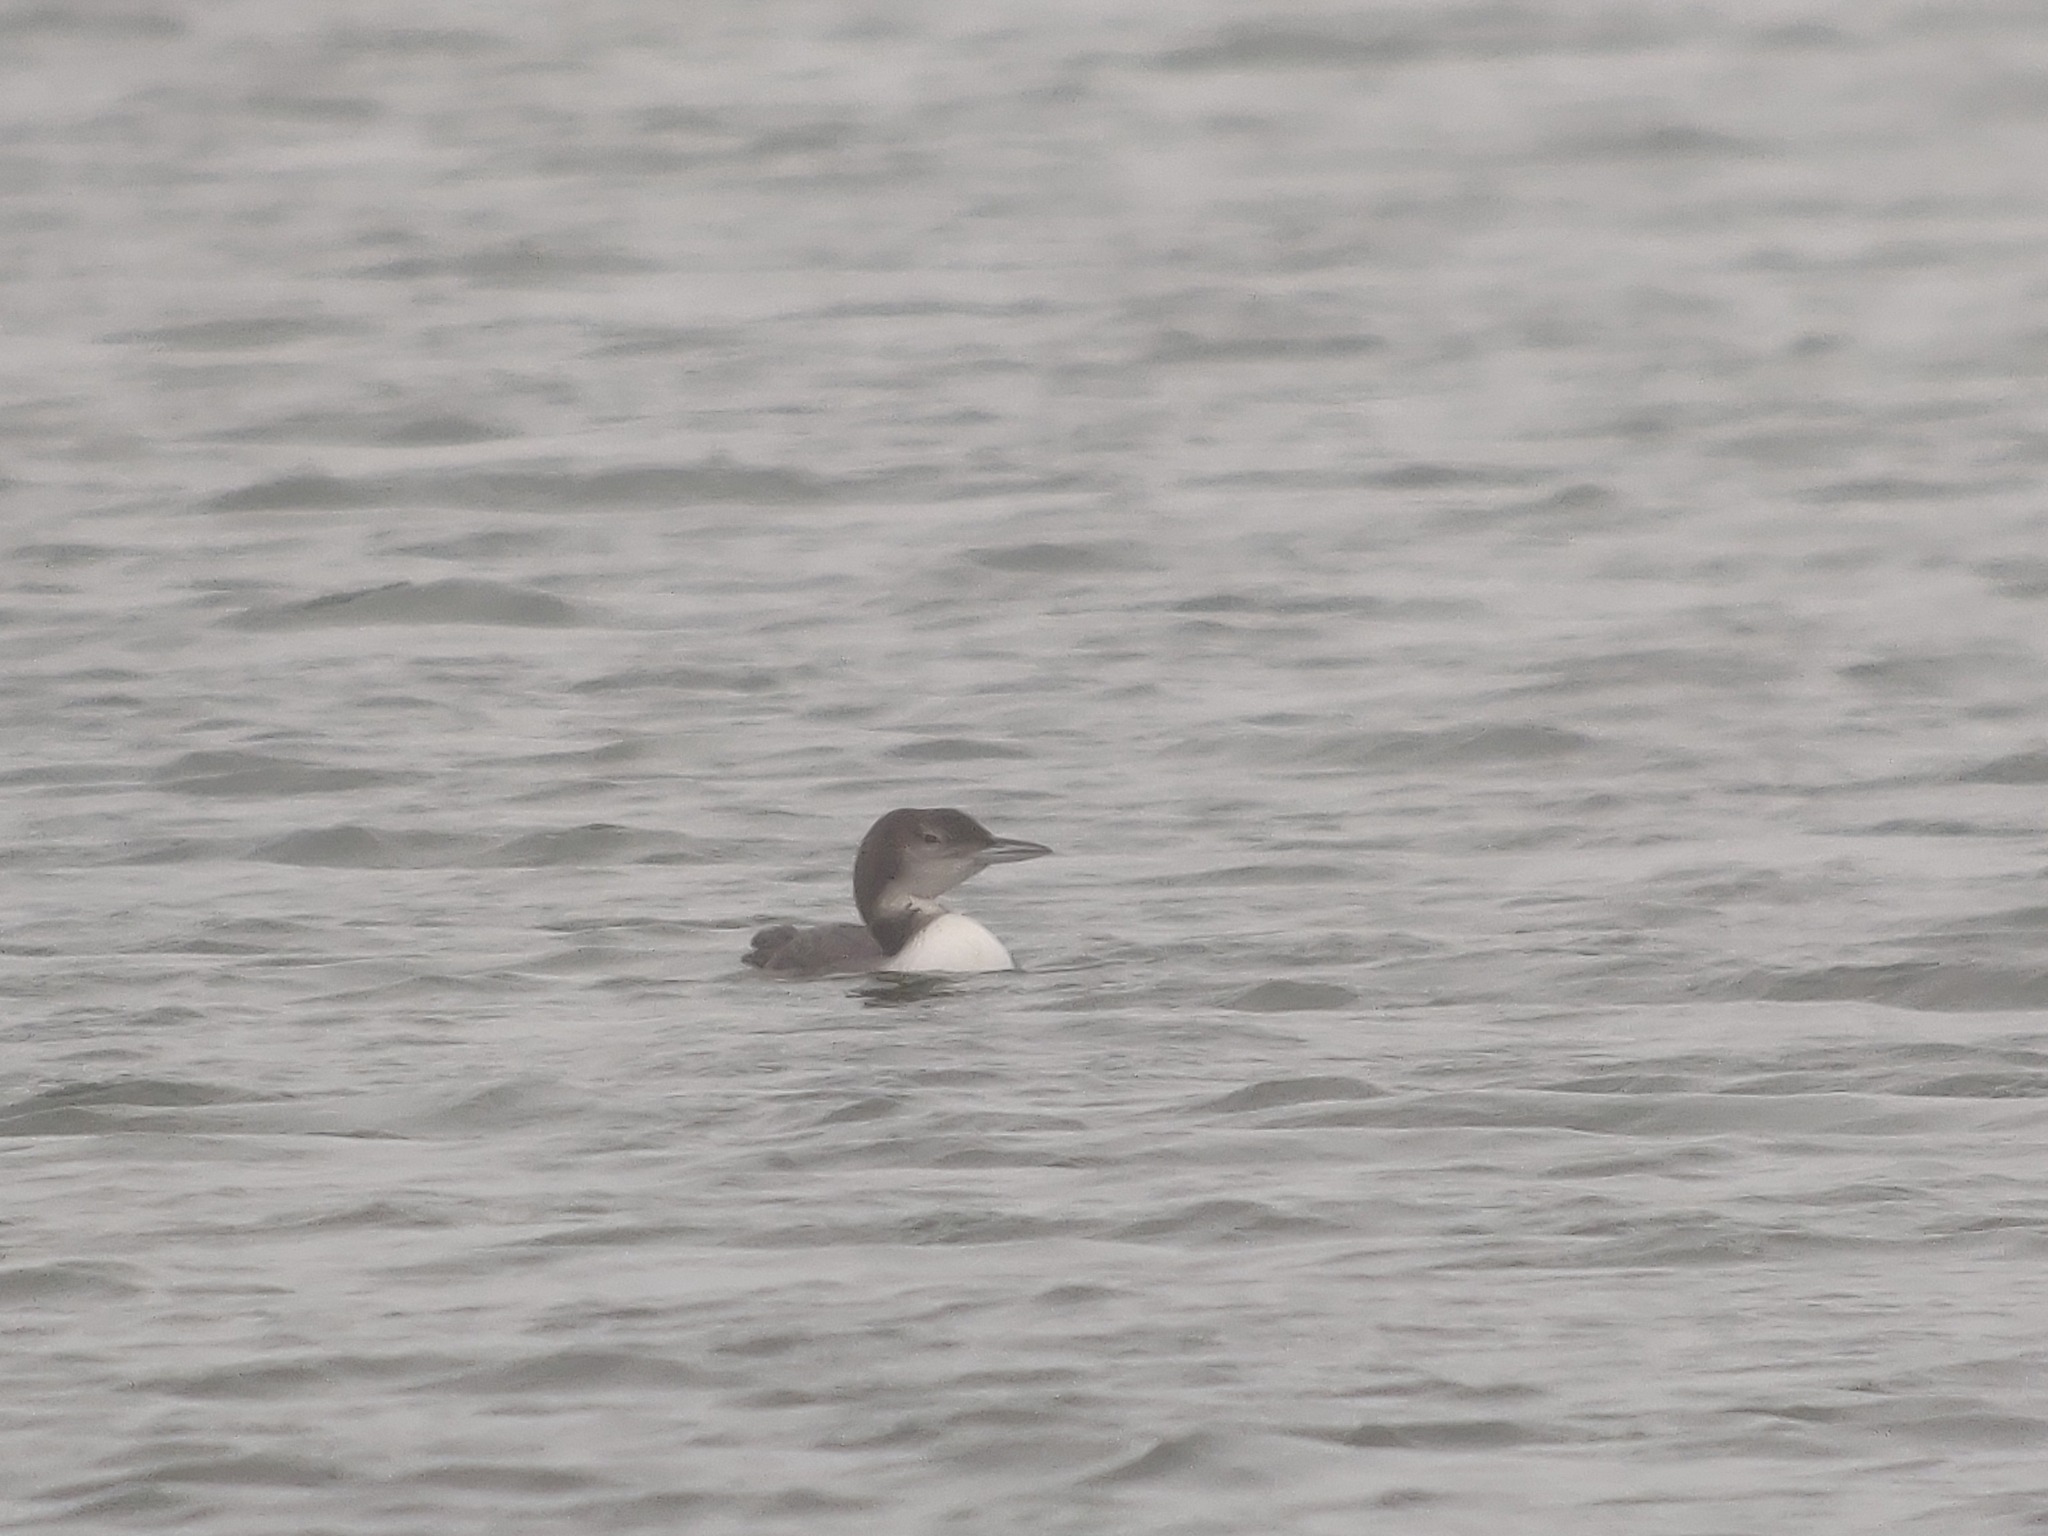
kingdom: Animalia
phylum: Chordata
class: Aves
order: Gaviiformes
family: Gaviidae
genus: Gavia
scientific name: Gavia immer
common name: Common loon
